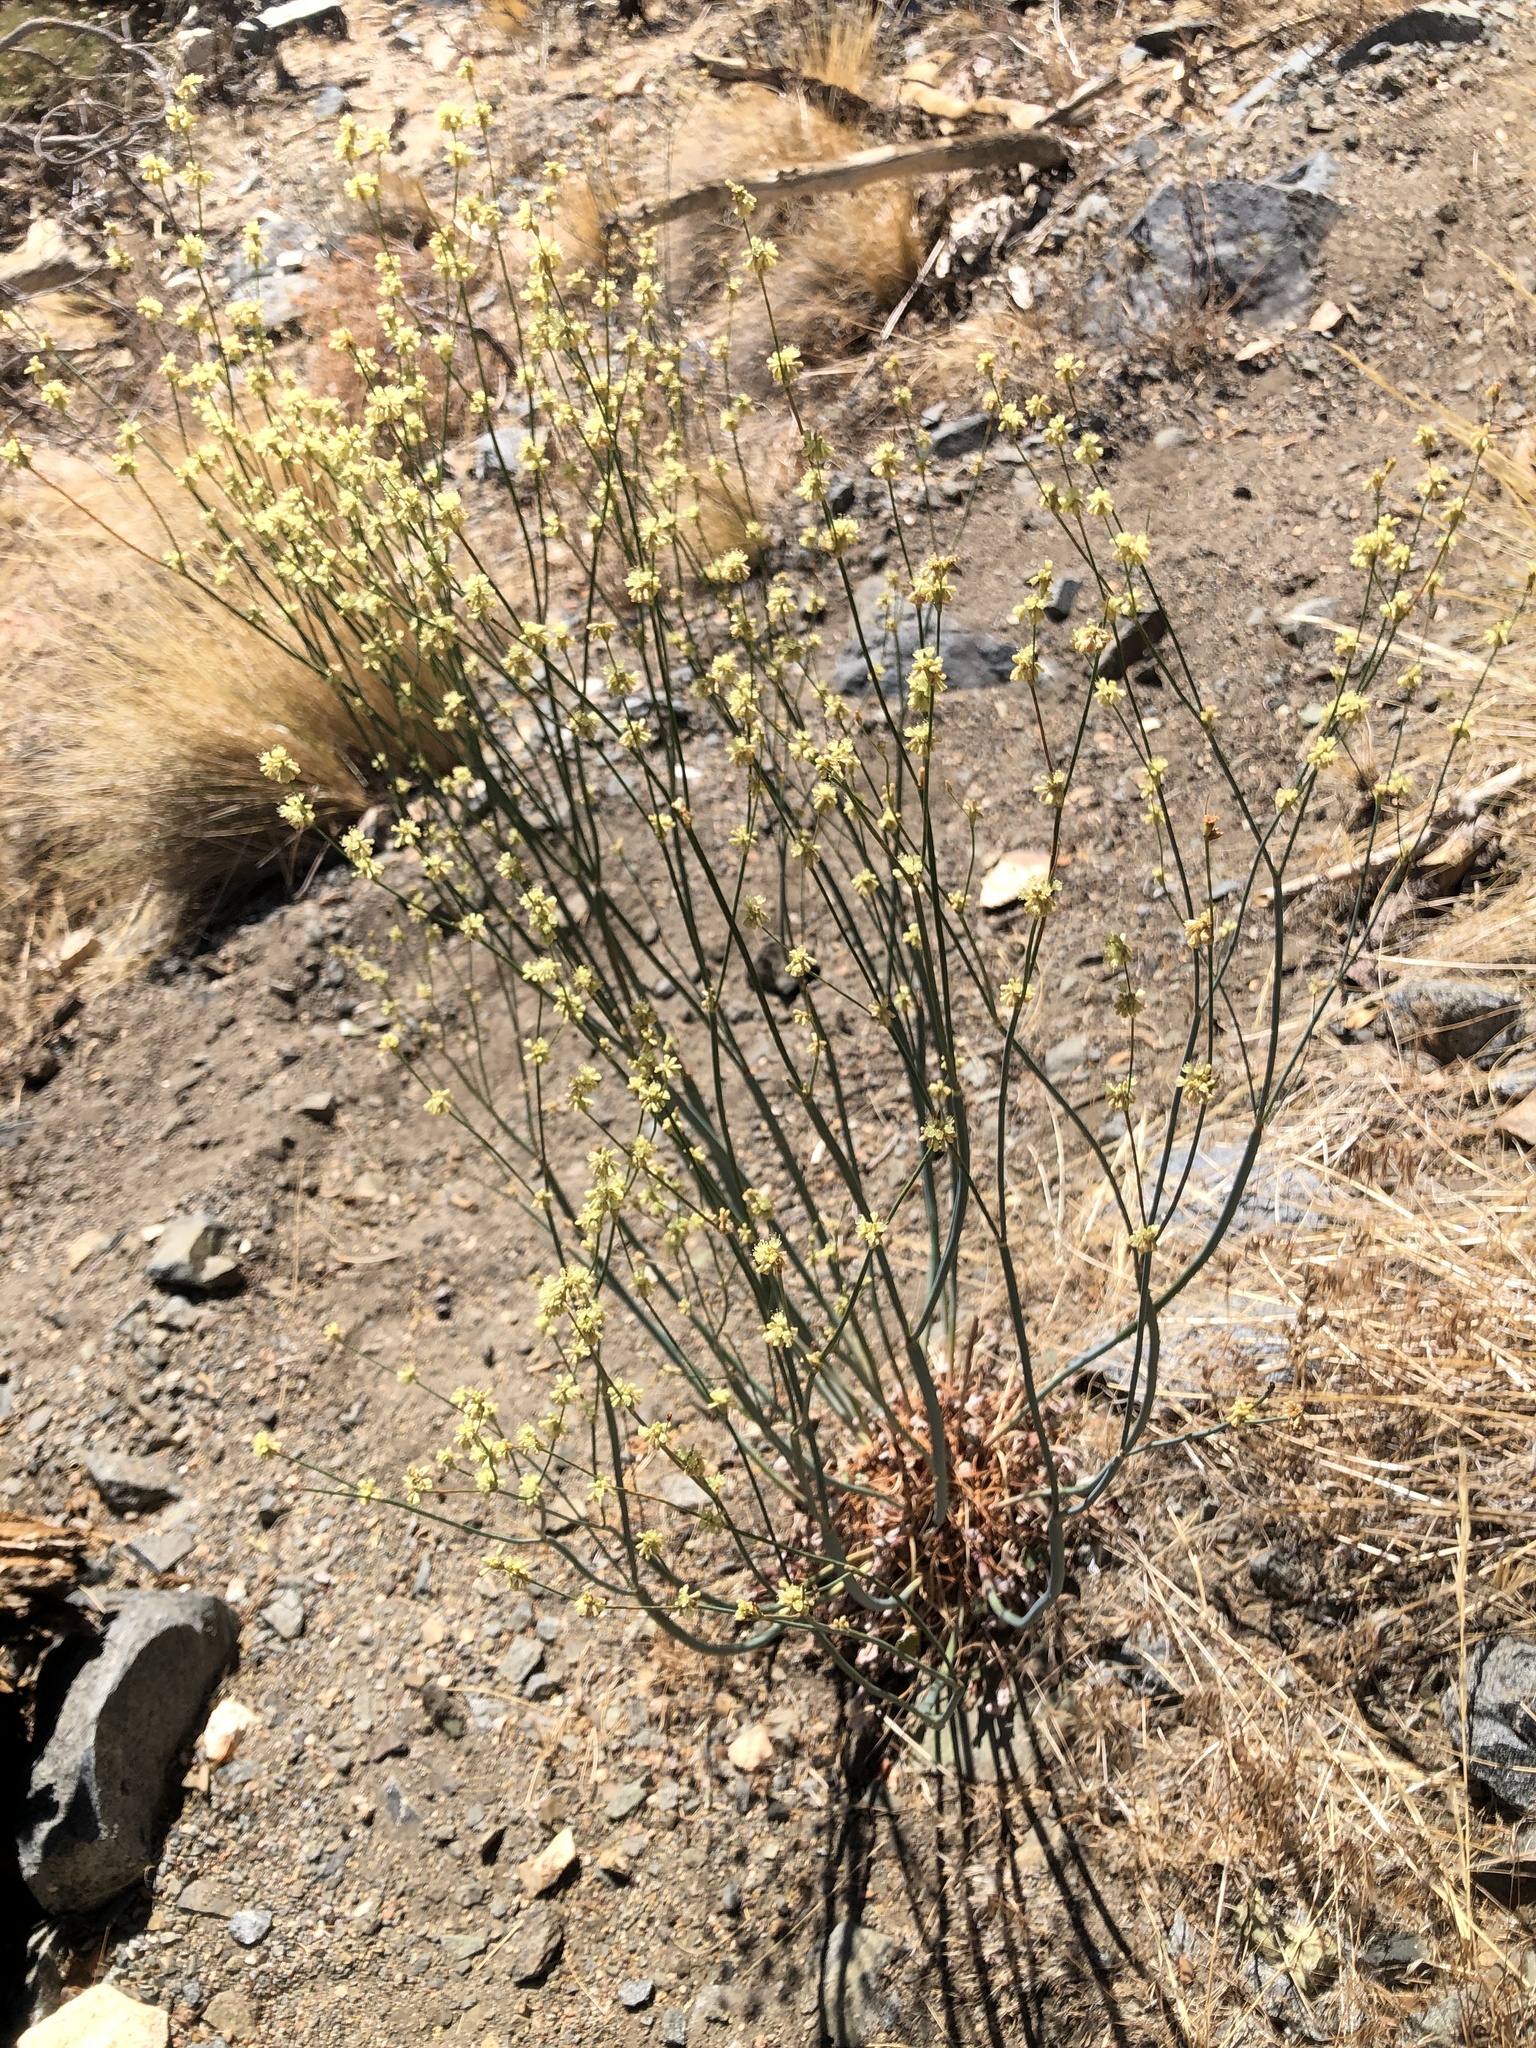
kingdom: Plantae
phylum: Tracheophyta
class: Magnoliopsida
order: Caryophyllales
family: Polygonaceae
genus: Eriogonum
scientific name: Eriogonum nudum
